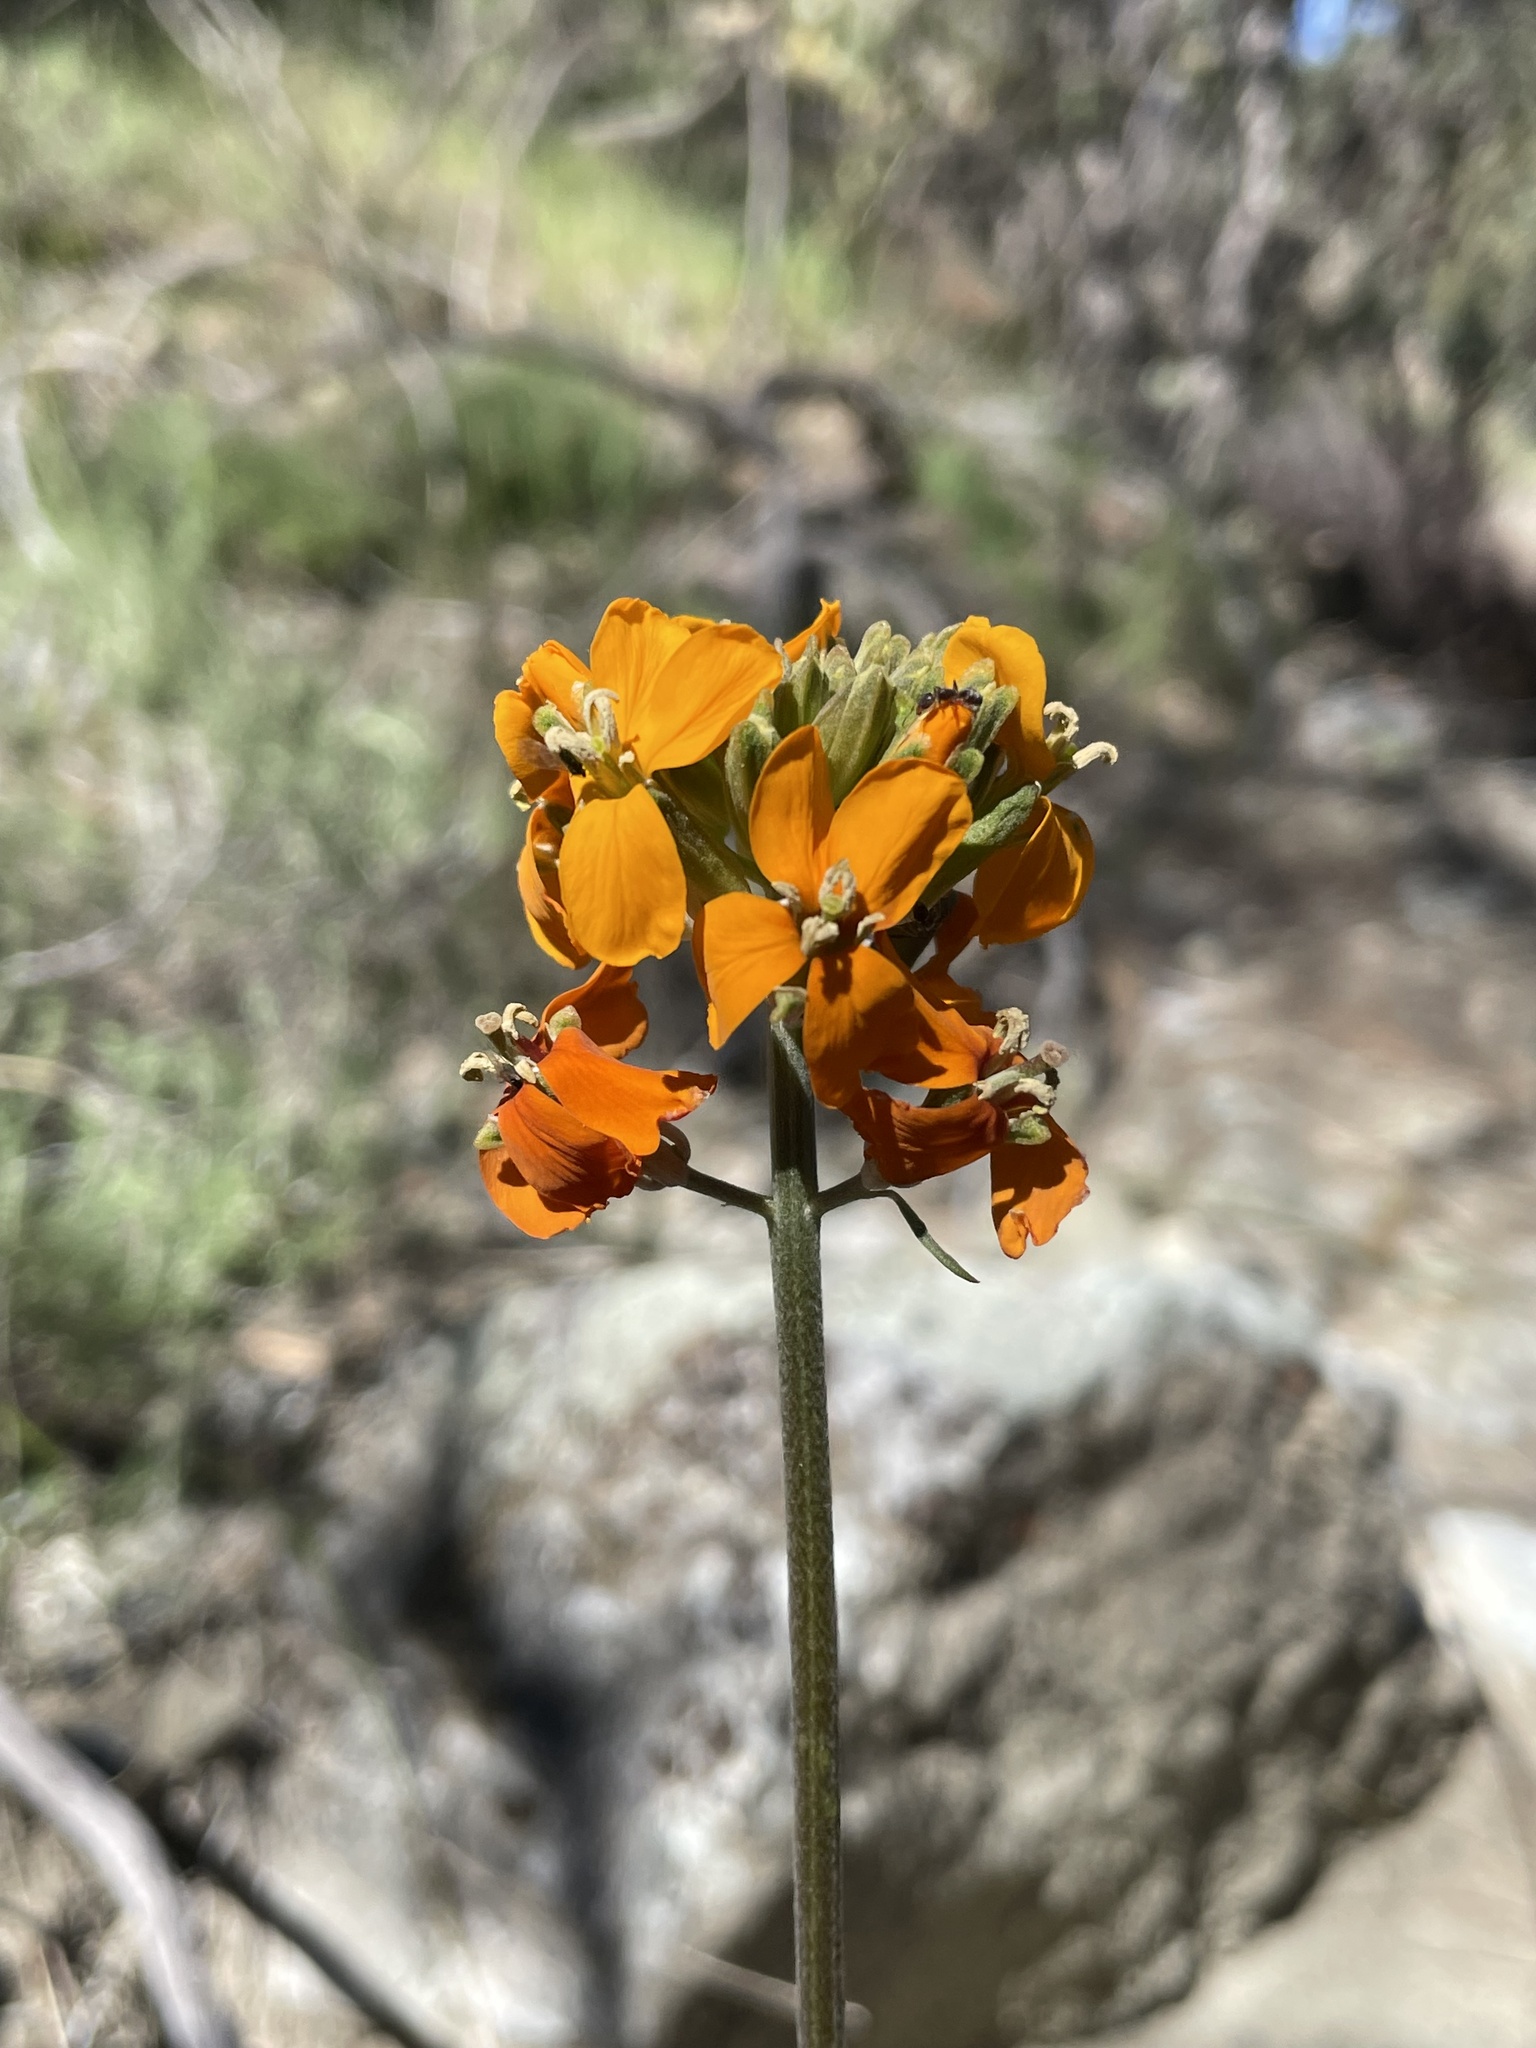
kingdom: Plantae
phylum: Tracheophyta
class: Magnoliopsida
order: Brassicales
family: Brassicaceae
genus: Erysimum
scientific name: Erysimum capitatum
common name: Western wallflower
